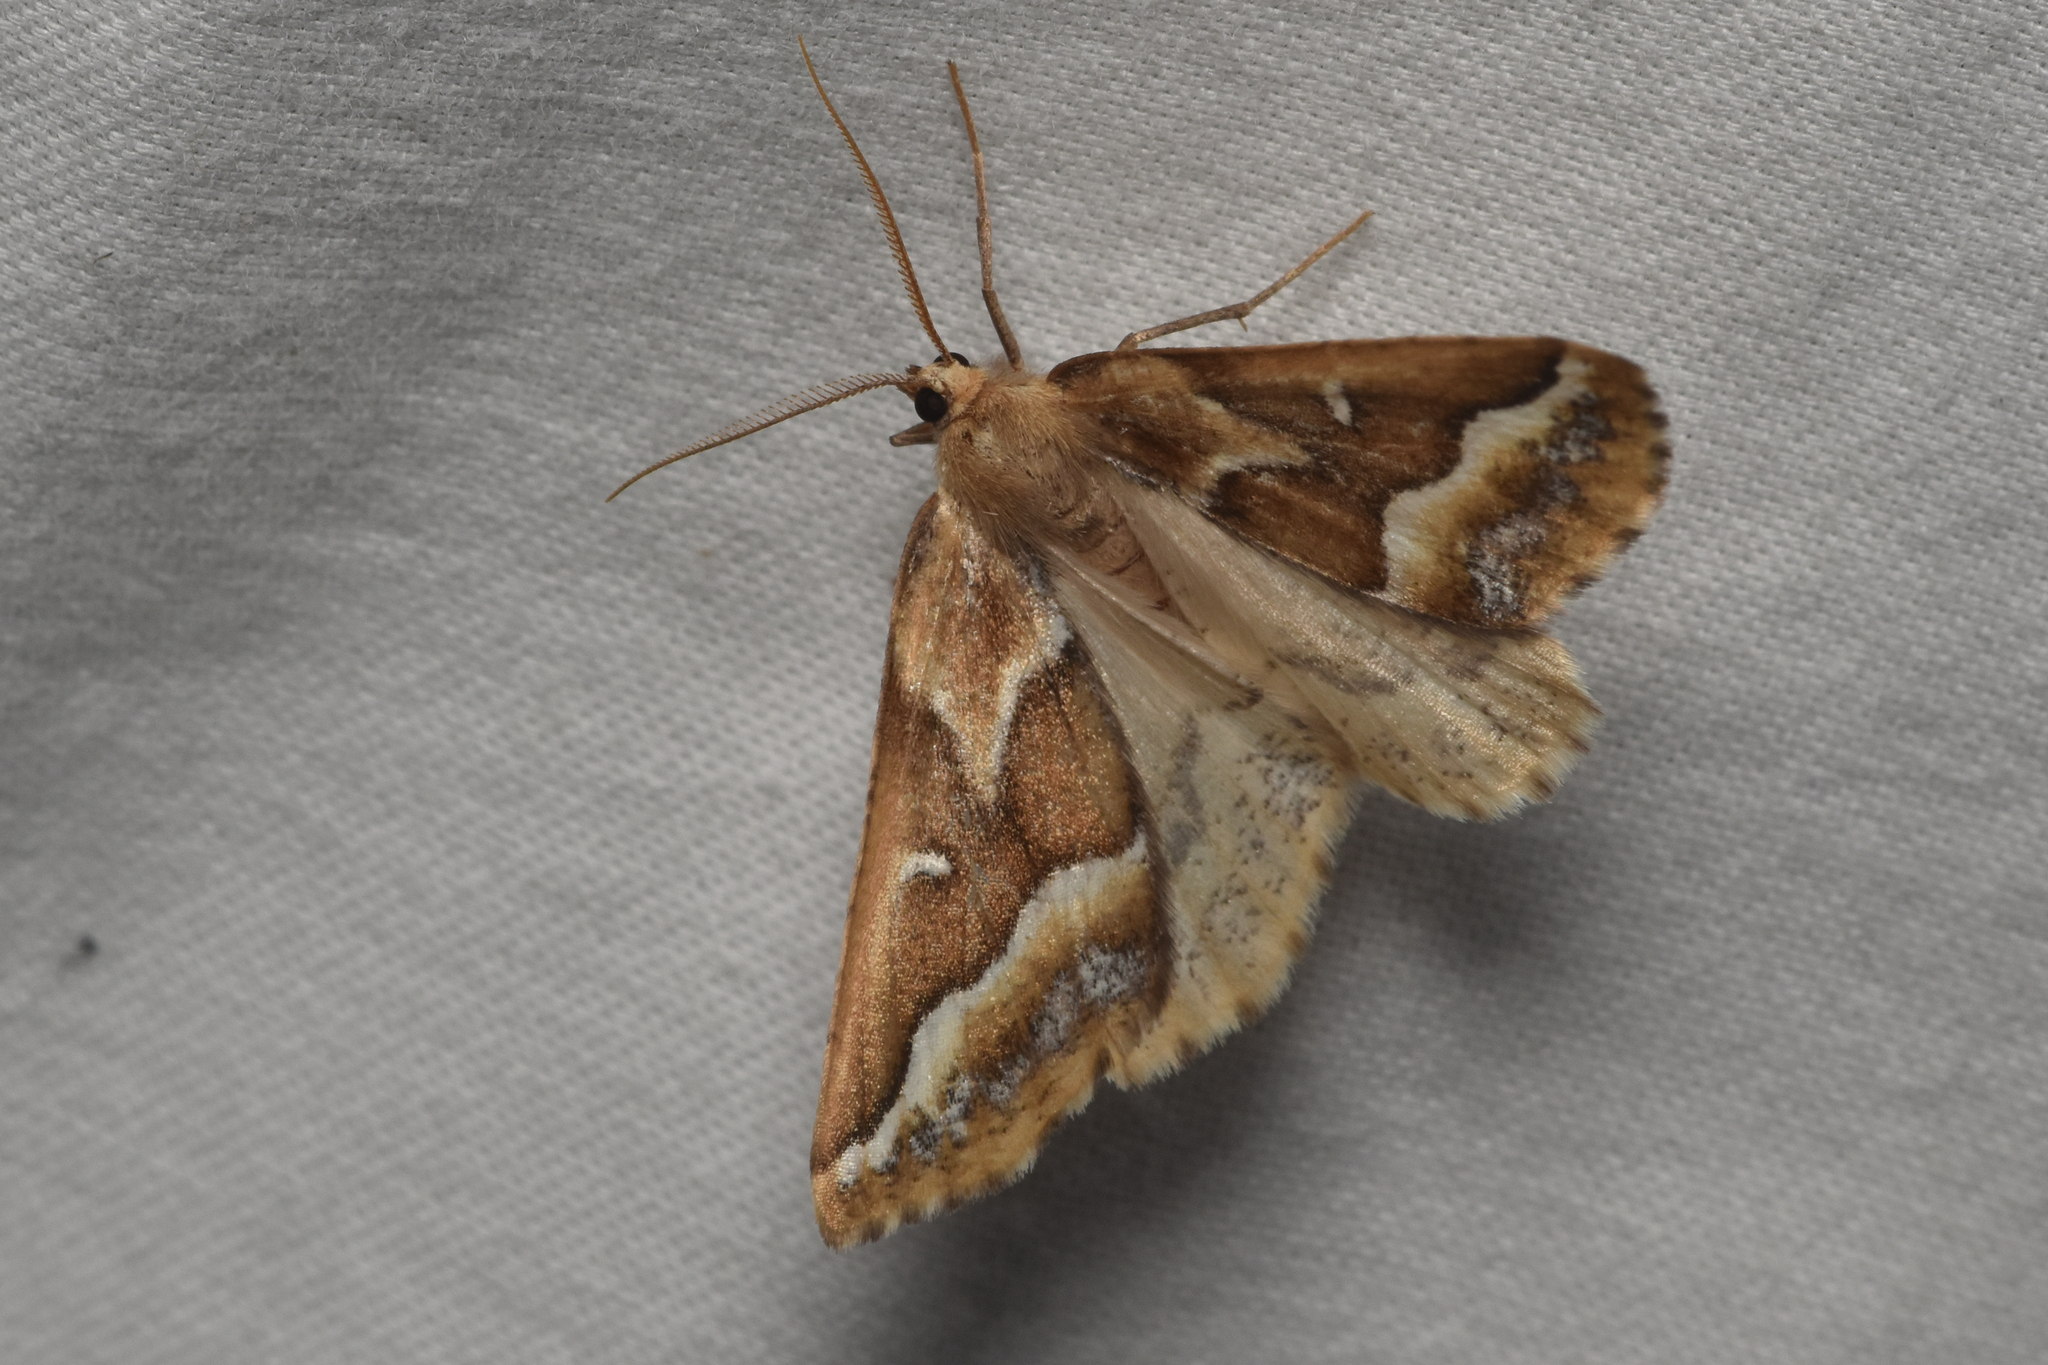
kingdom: Animalia
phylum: Arthropoda
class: Insecta
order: Lepidoptera
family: Geometridae
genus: Caripeta
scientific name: Caripeta angustiorata
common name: Brown pine looper
